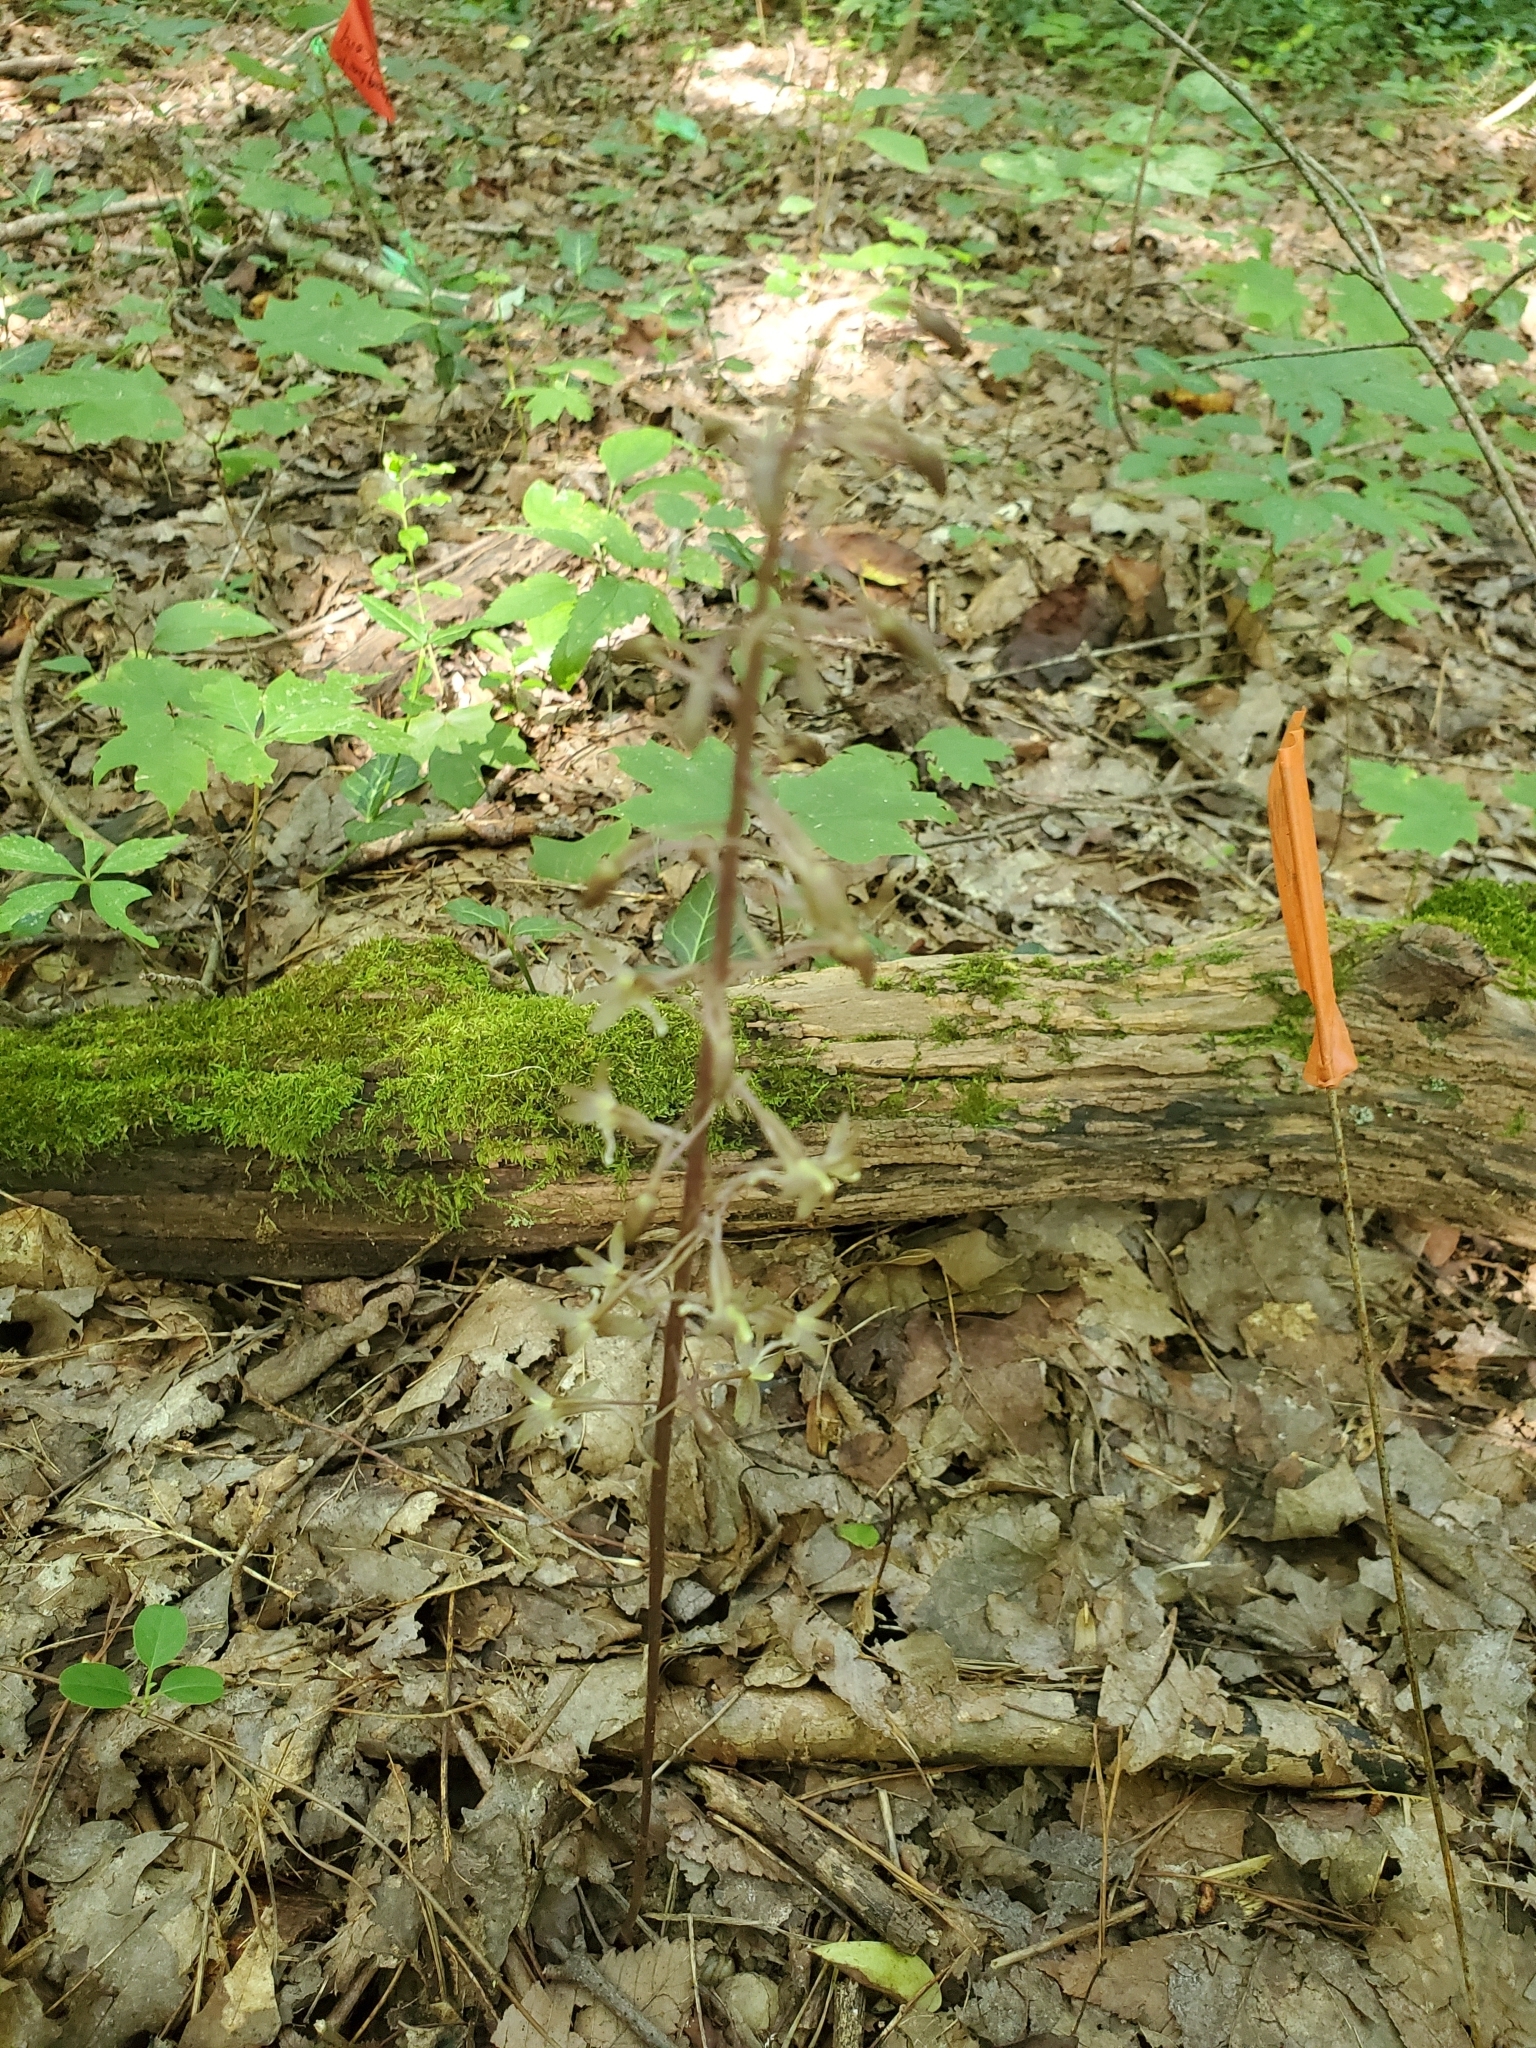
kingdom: Plantae
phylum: Tracheophyta
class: Liliopsida
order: Asparagales
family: Orchidaceae
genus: Tipularia
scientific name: Tipularia discolor
